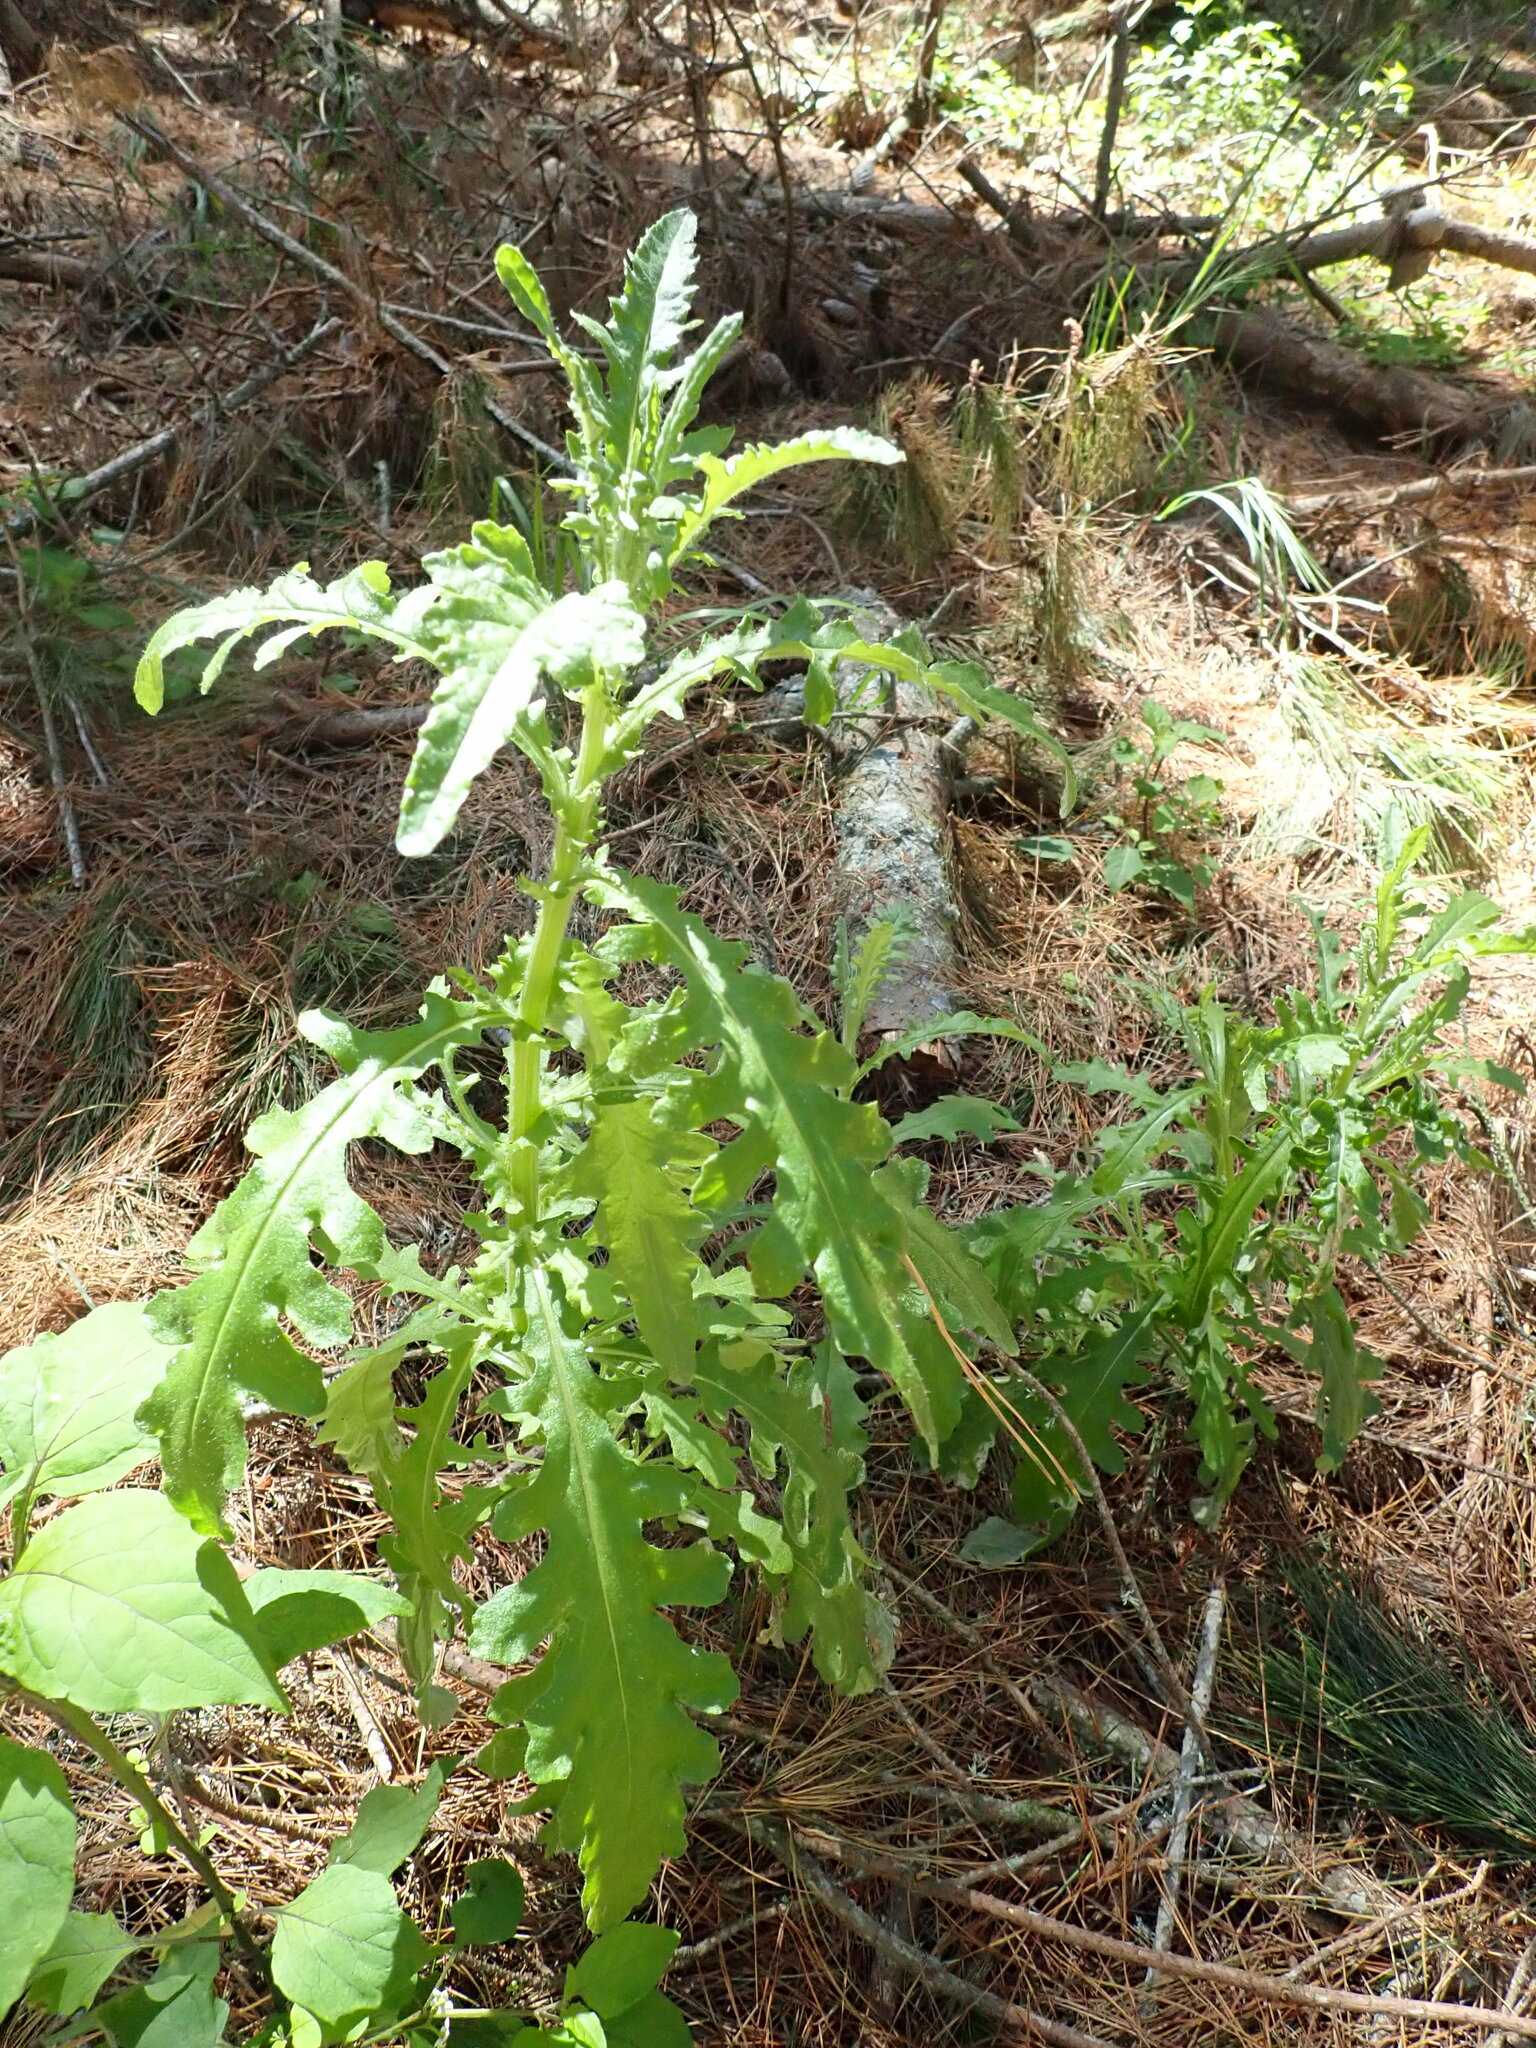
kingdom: Plantae
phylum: Tracheophyta
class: Magnoliopsida
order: Asterales
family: Asteraceae
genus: Senecio
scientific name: Senecio glomeratus
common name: Cutleaf burnweed
